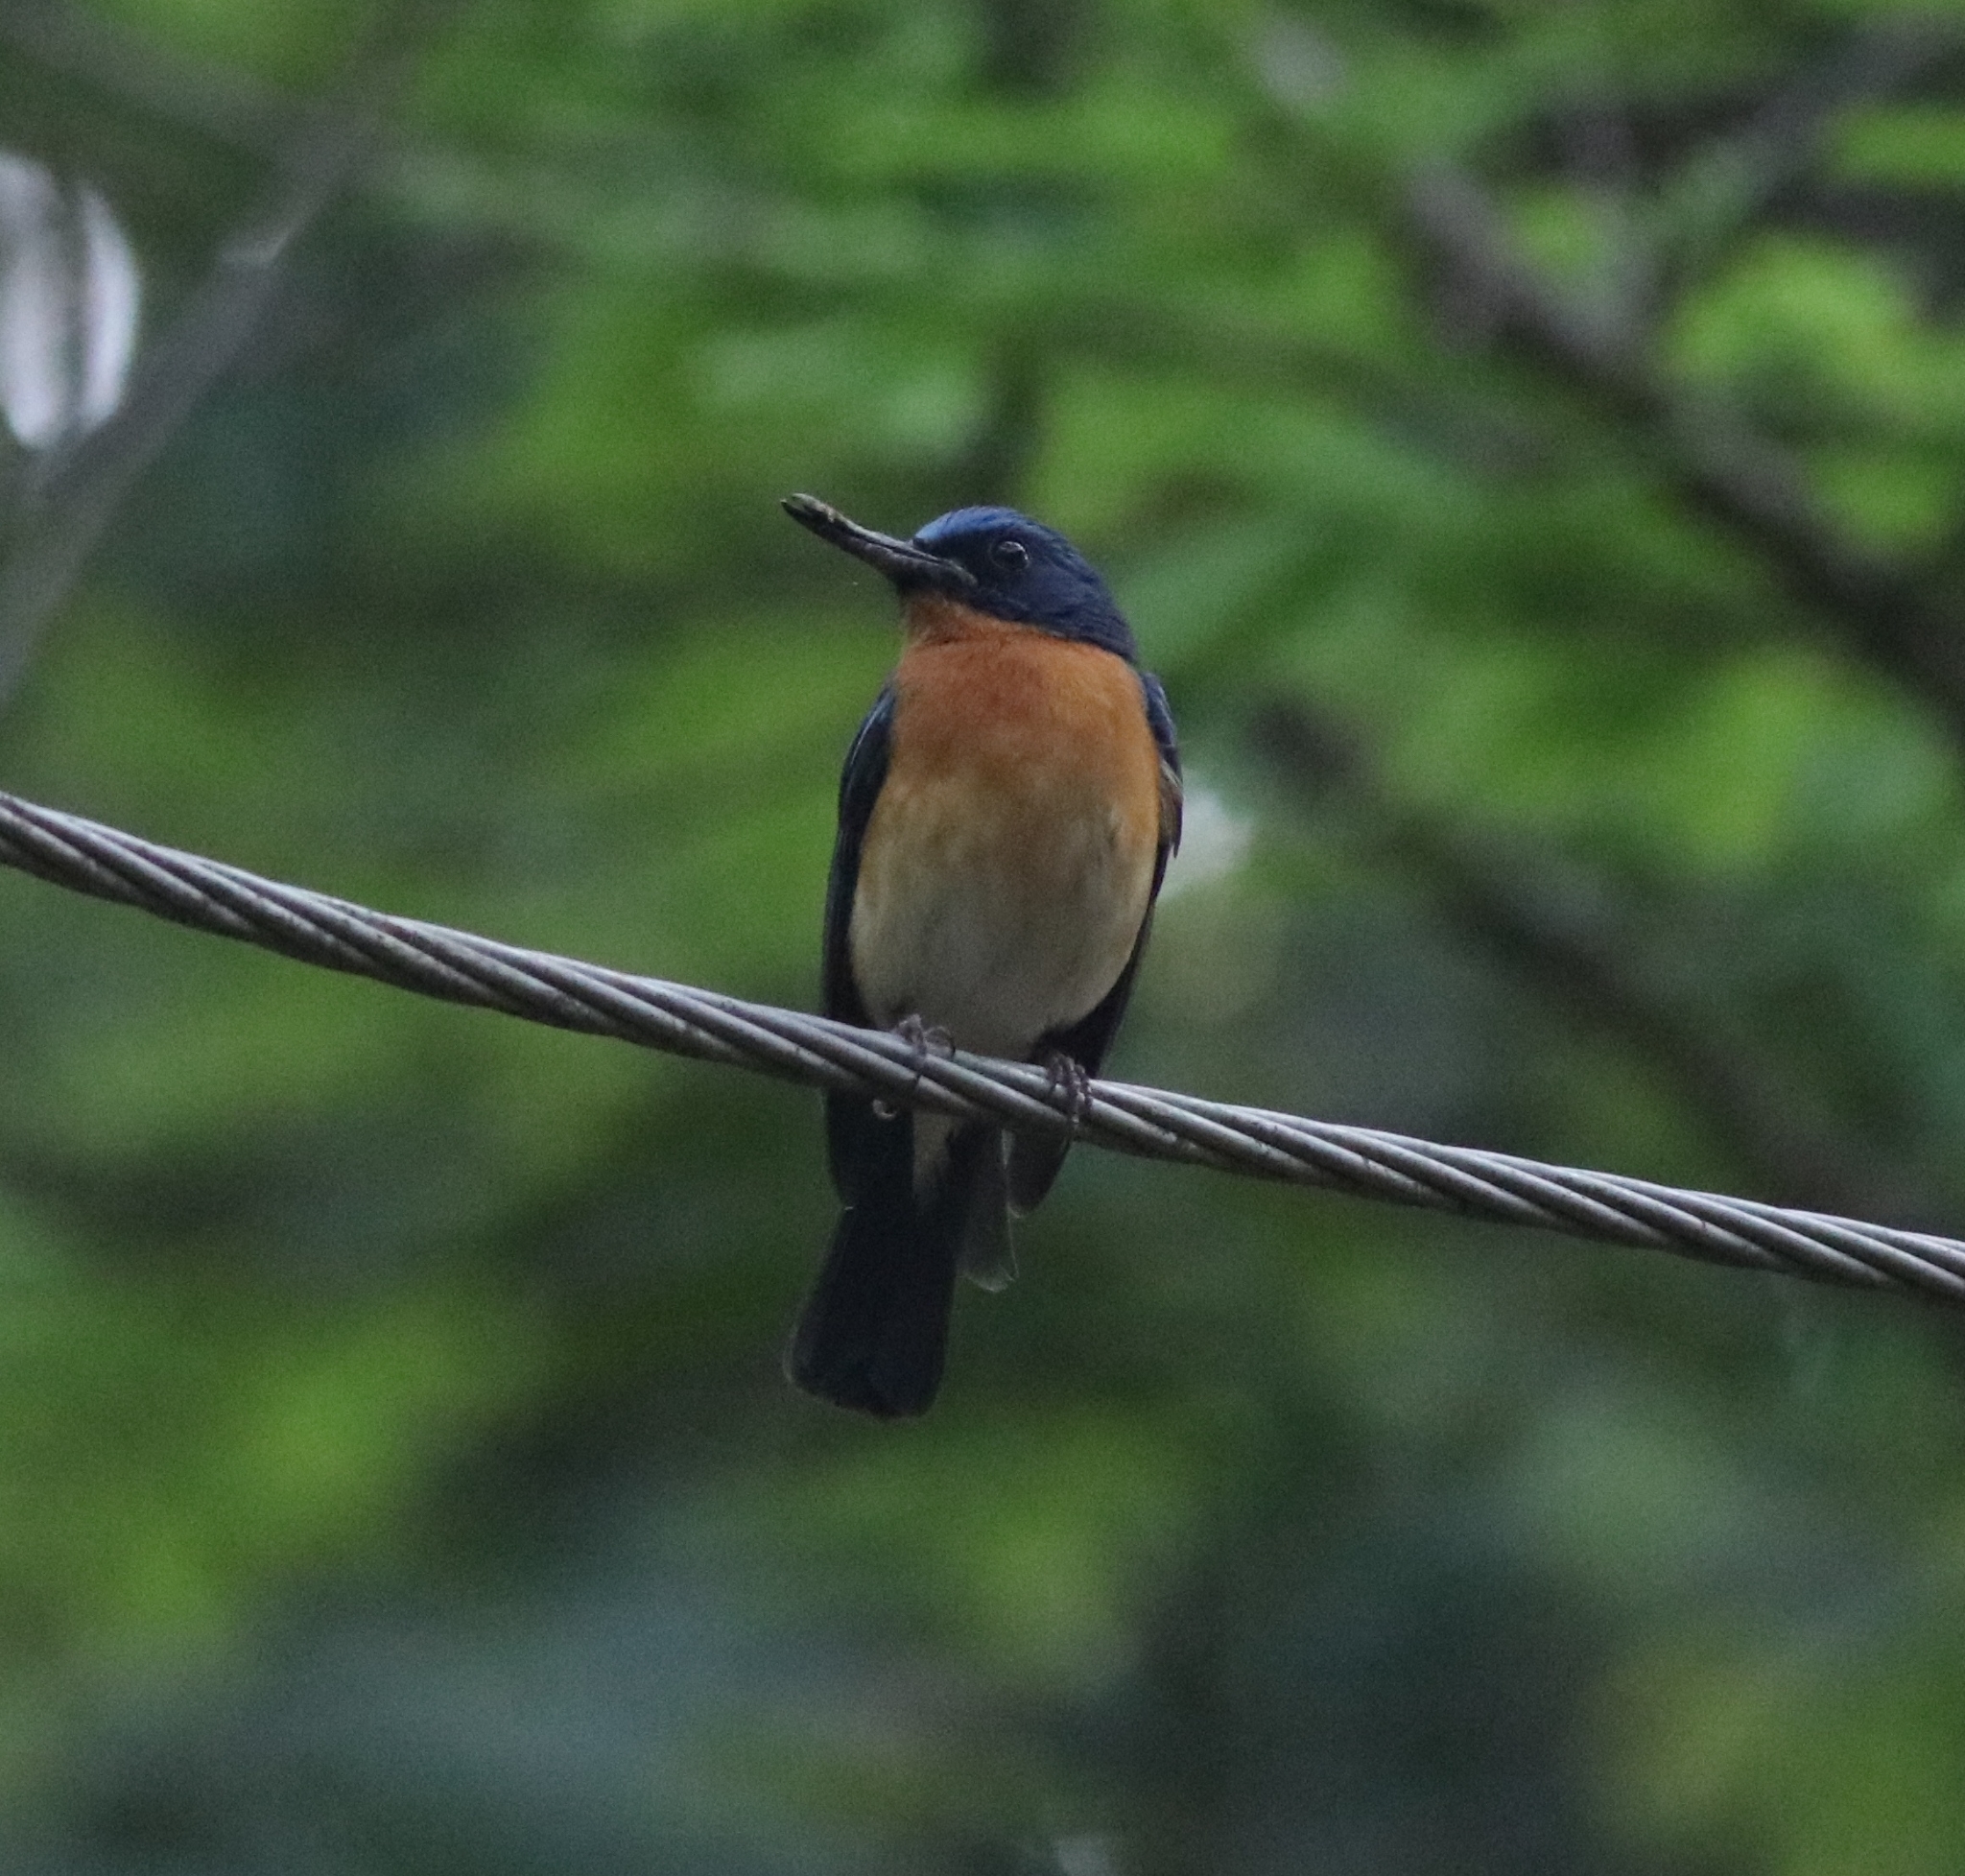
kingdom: Animalia
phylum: Chordata
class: Aves
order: Passeriformes
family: Muscicapidae
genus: Cyornis
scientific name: Cyornis tickelliae
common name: Tickell's blue flycatcher
